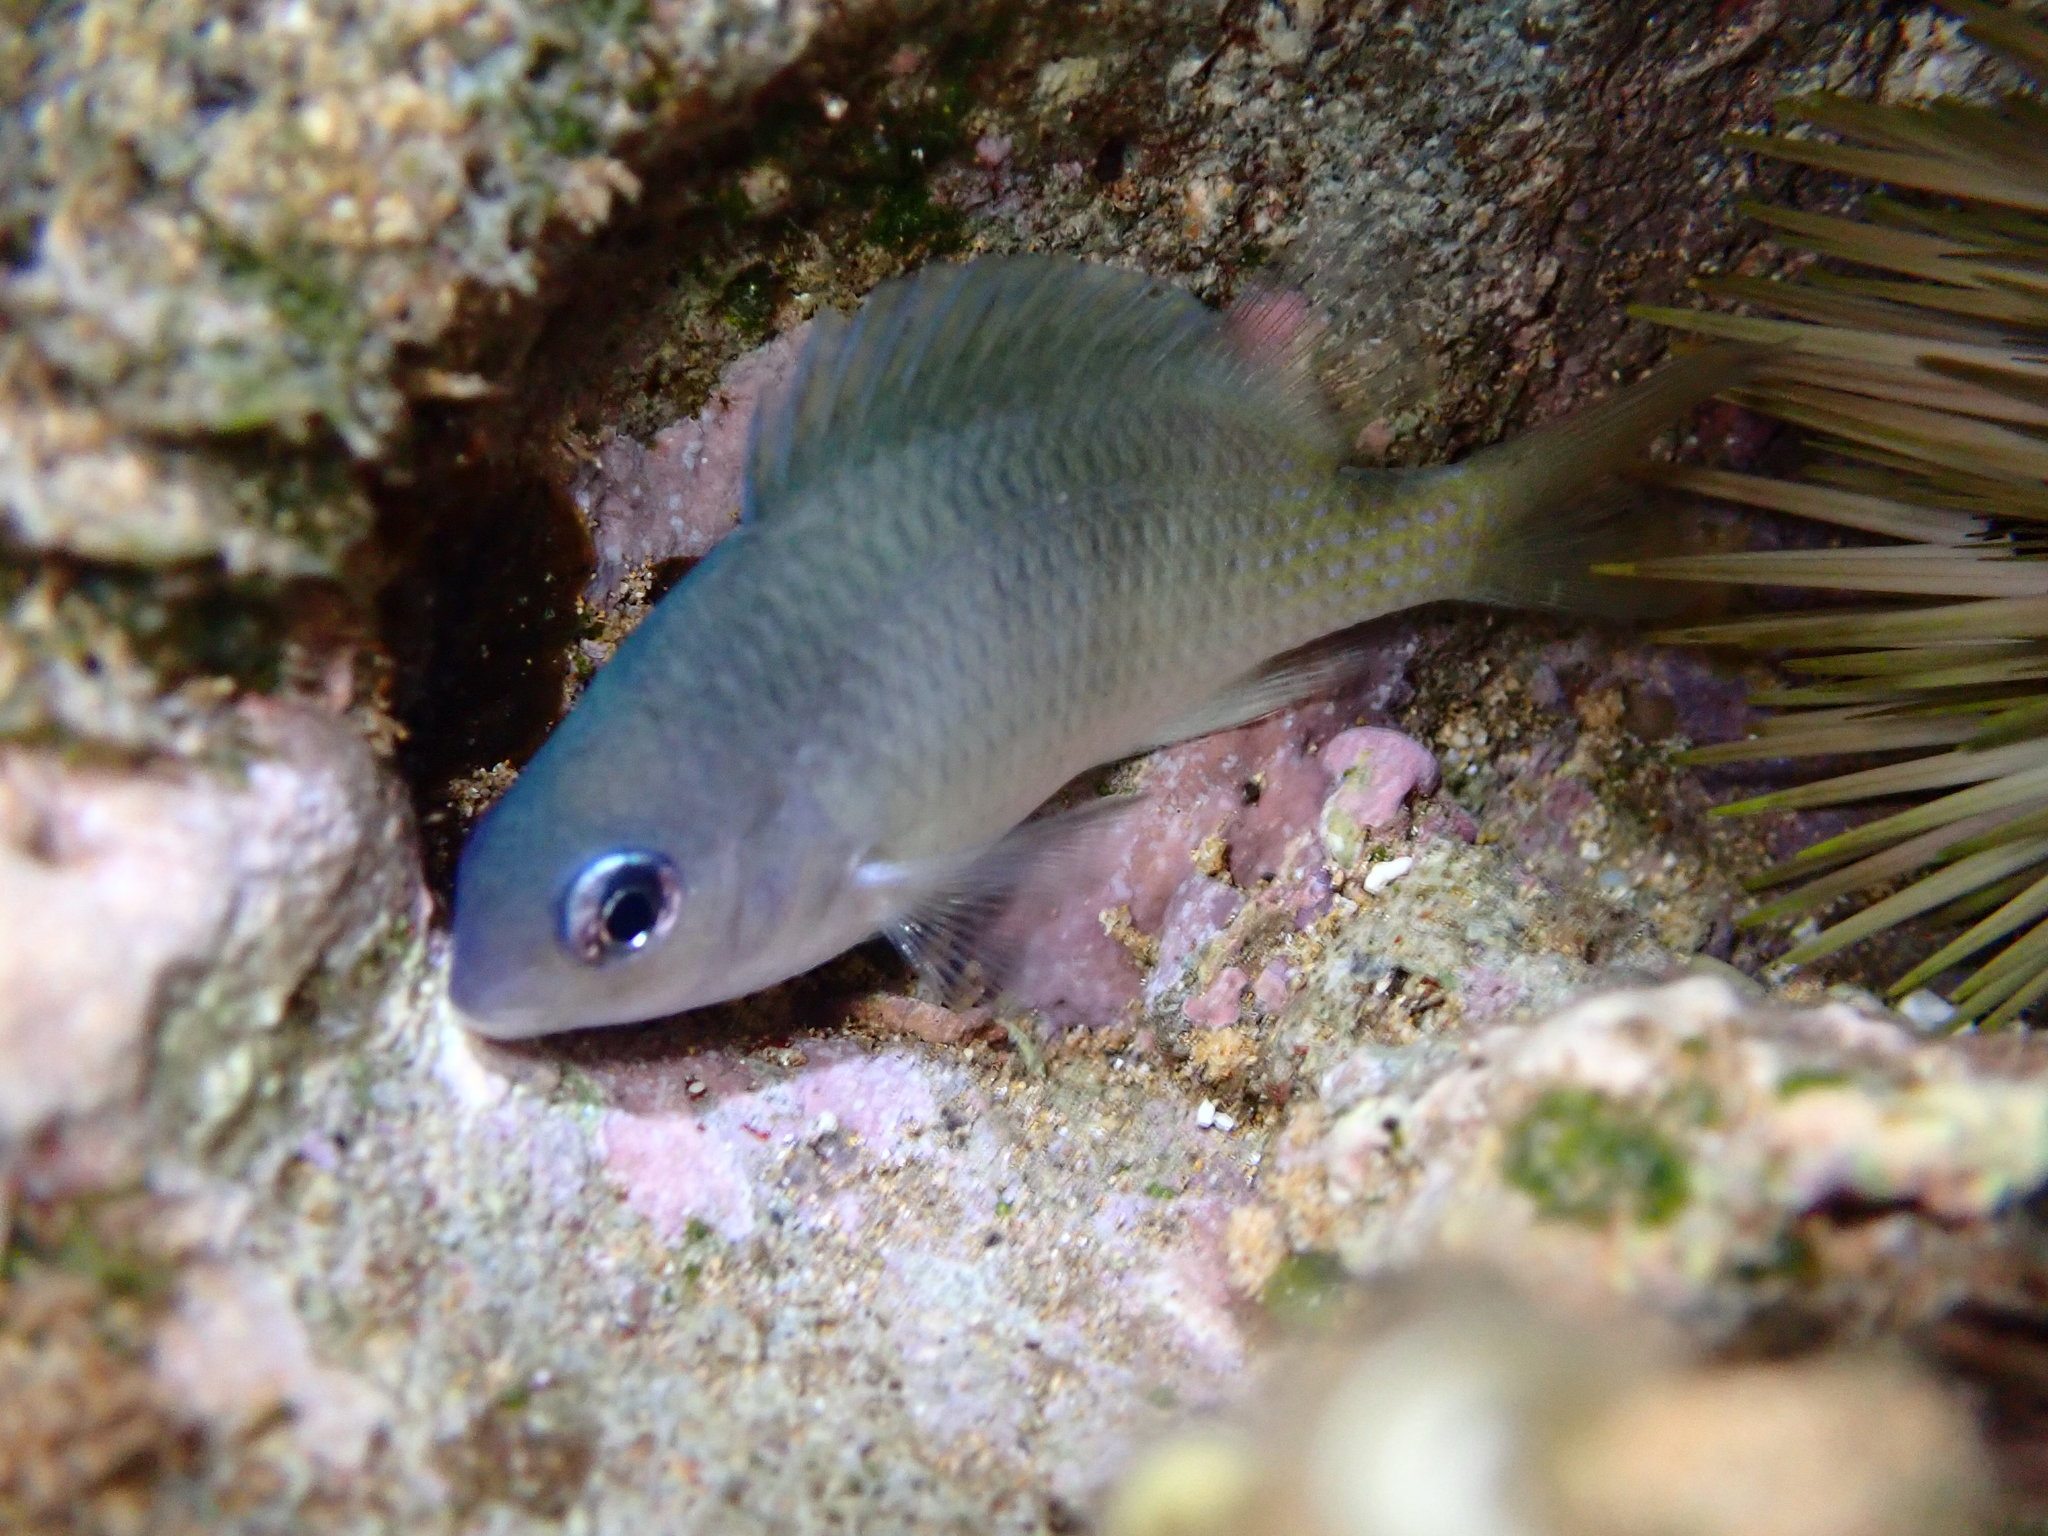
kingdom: Animalia
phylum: Chordata
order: Perciformes
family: Pomacentridae
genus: Plectroglyphidodon
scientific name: Plectroglyphidodon imparipennis
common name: Brighteye damsel
